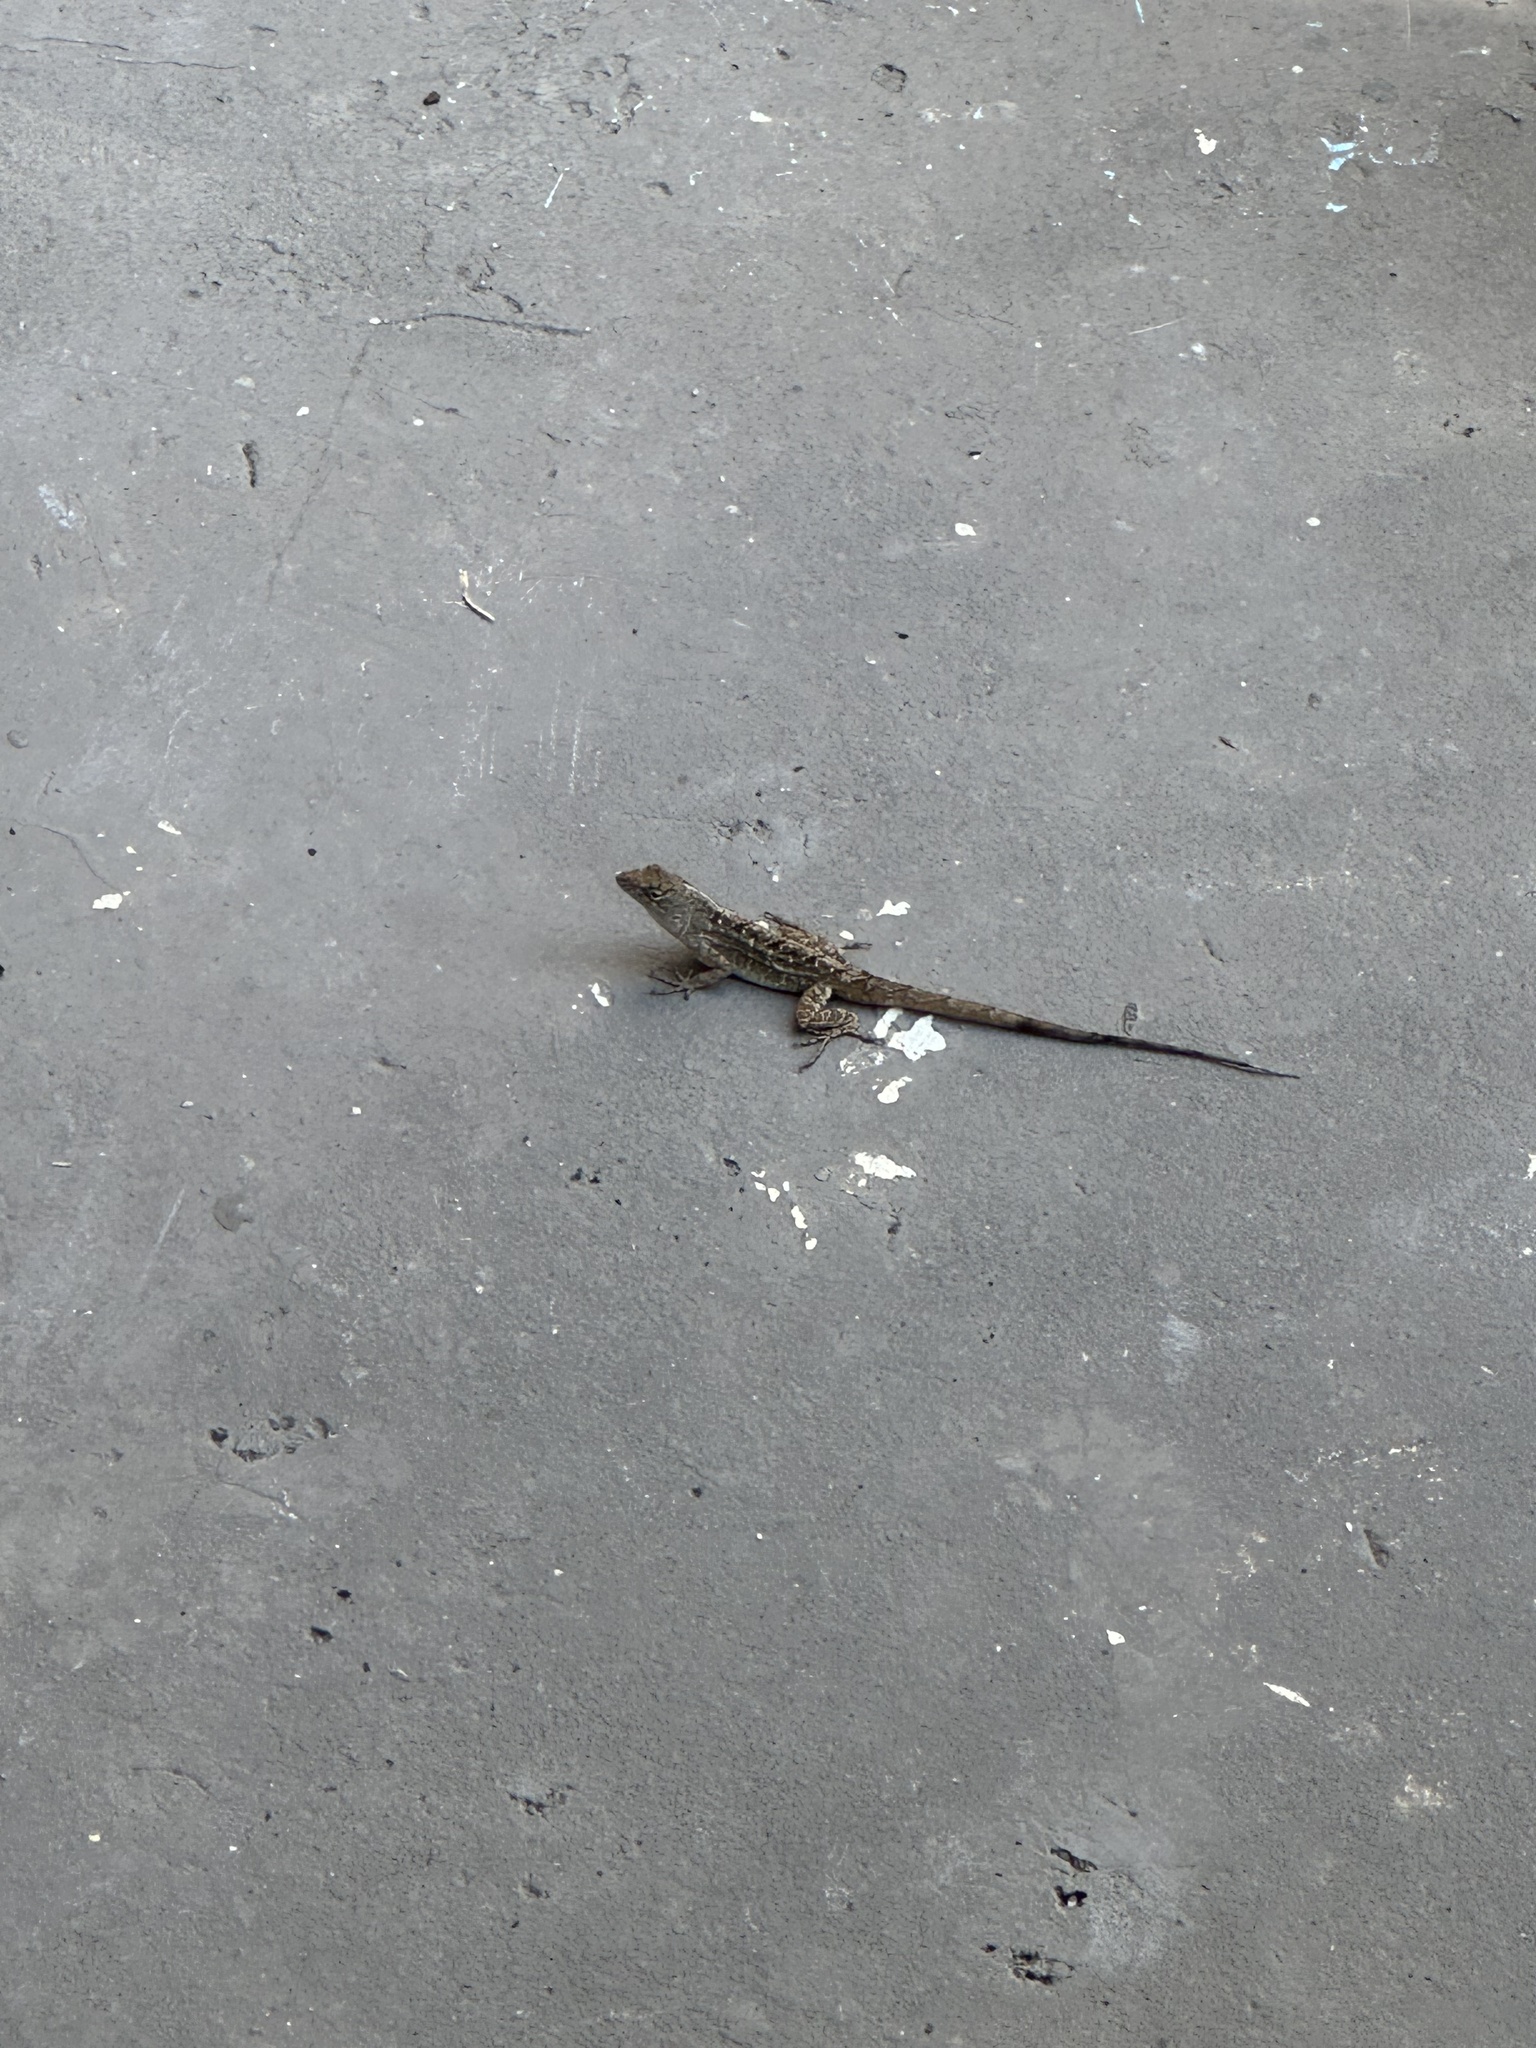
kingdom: Animalia
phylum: Chordata
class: Squamata
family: Dactyloidae
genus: Anolis
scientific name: Anolis sagrei
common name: Brown anole
